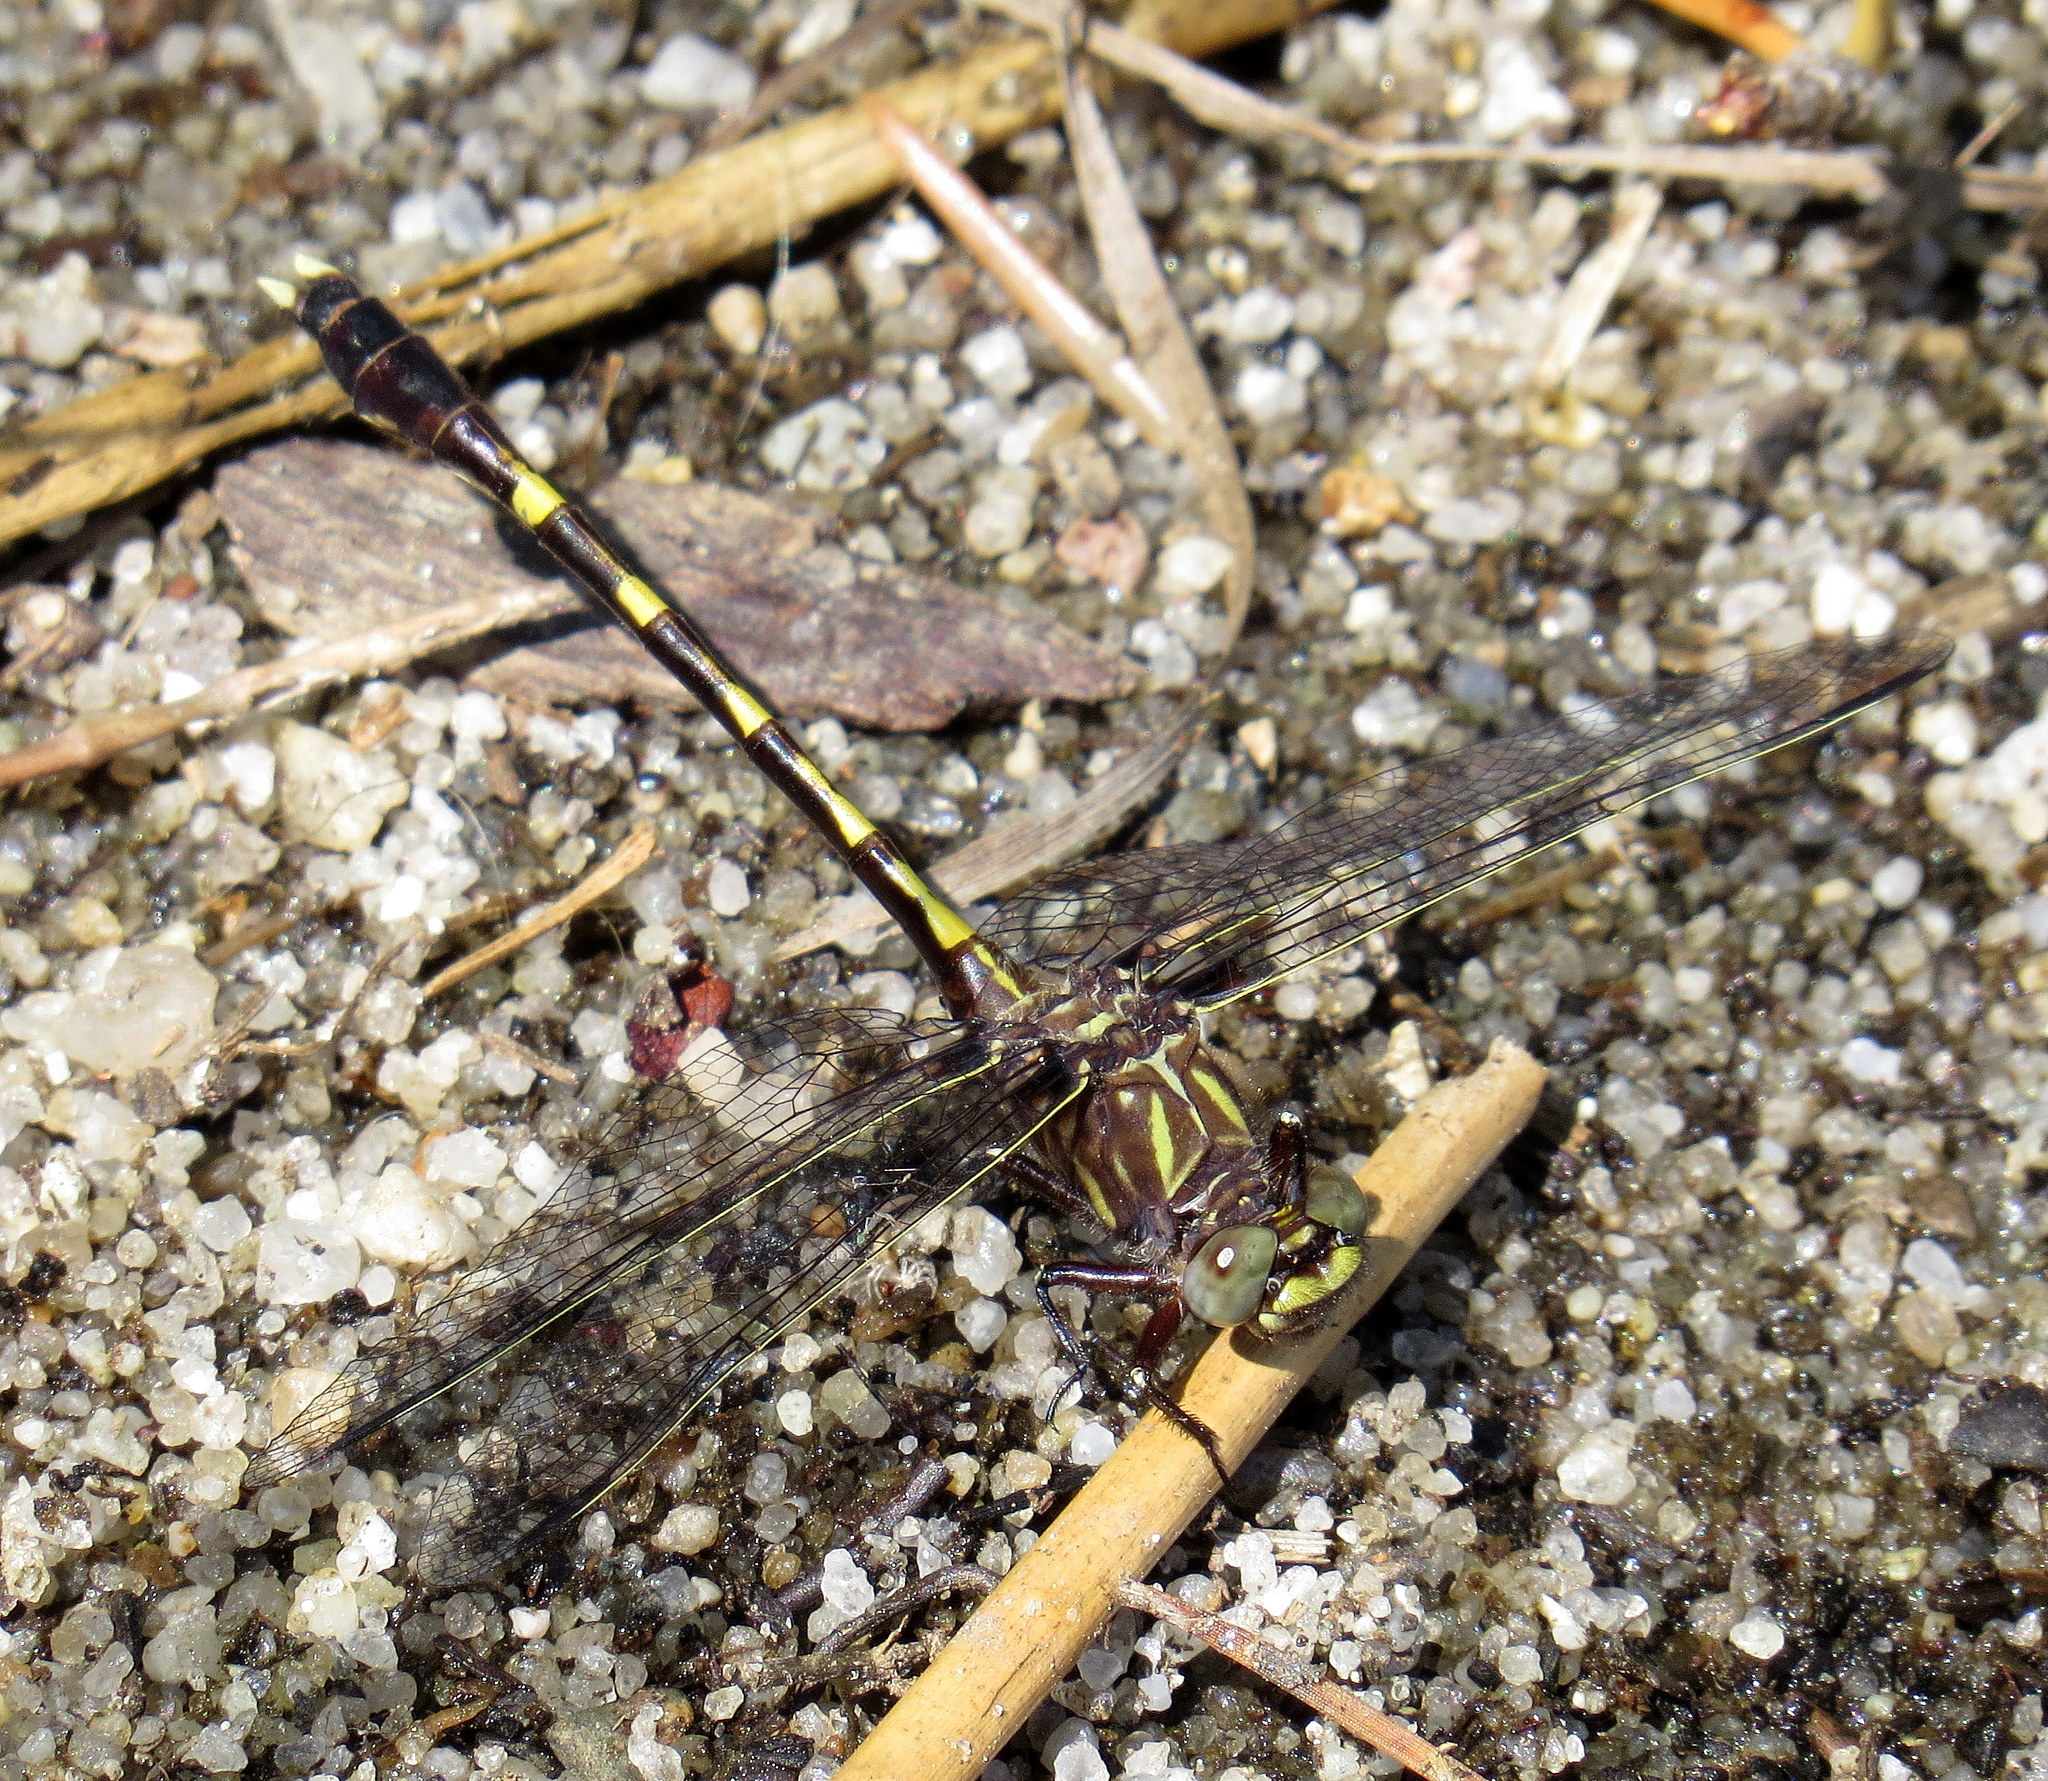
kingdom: Animalia
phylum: Arthropoda
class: Insecta
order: Odonata
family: Gomphidae
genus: Progomphus
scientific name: Progomphus obscurus
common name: Common sanddragon
